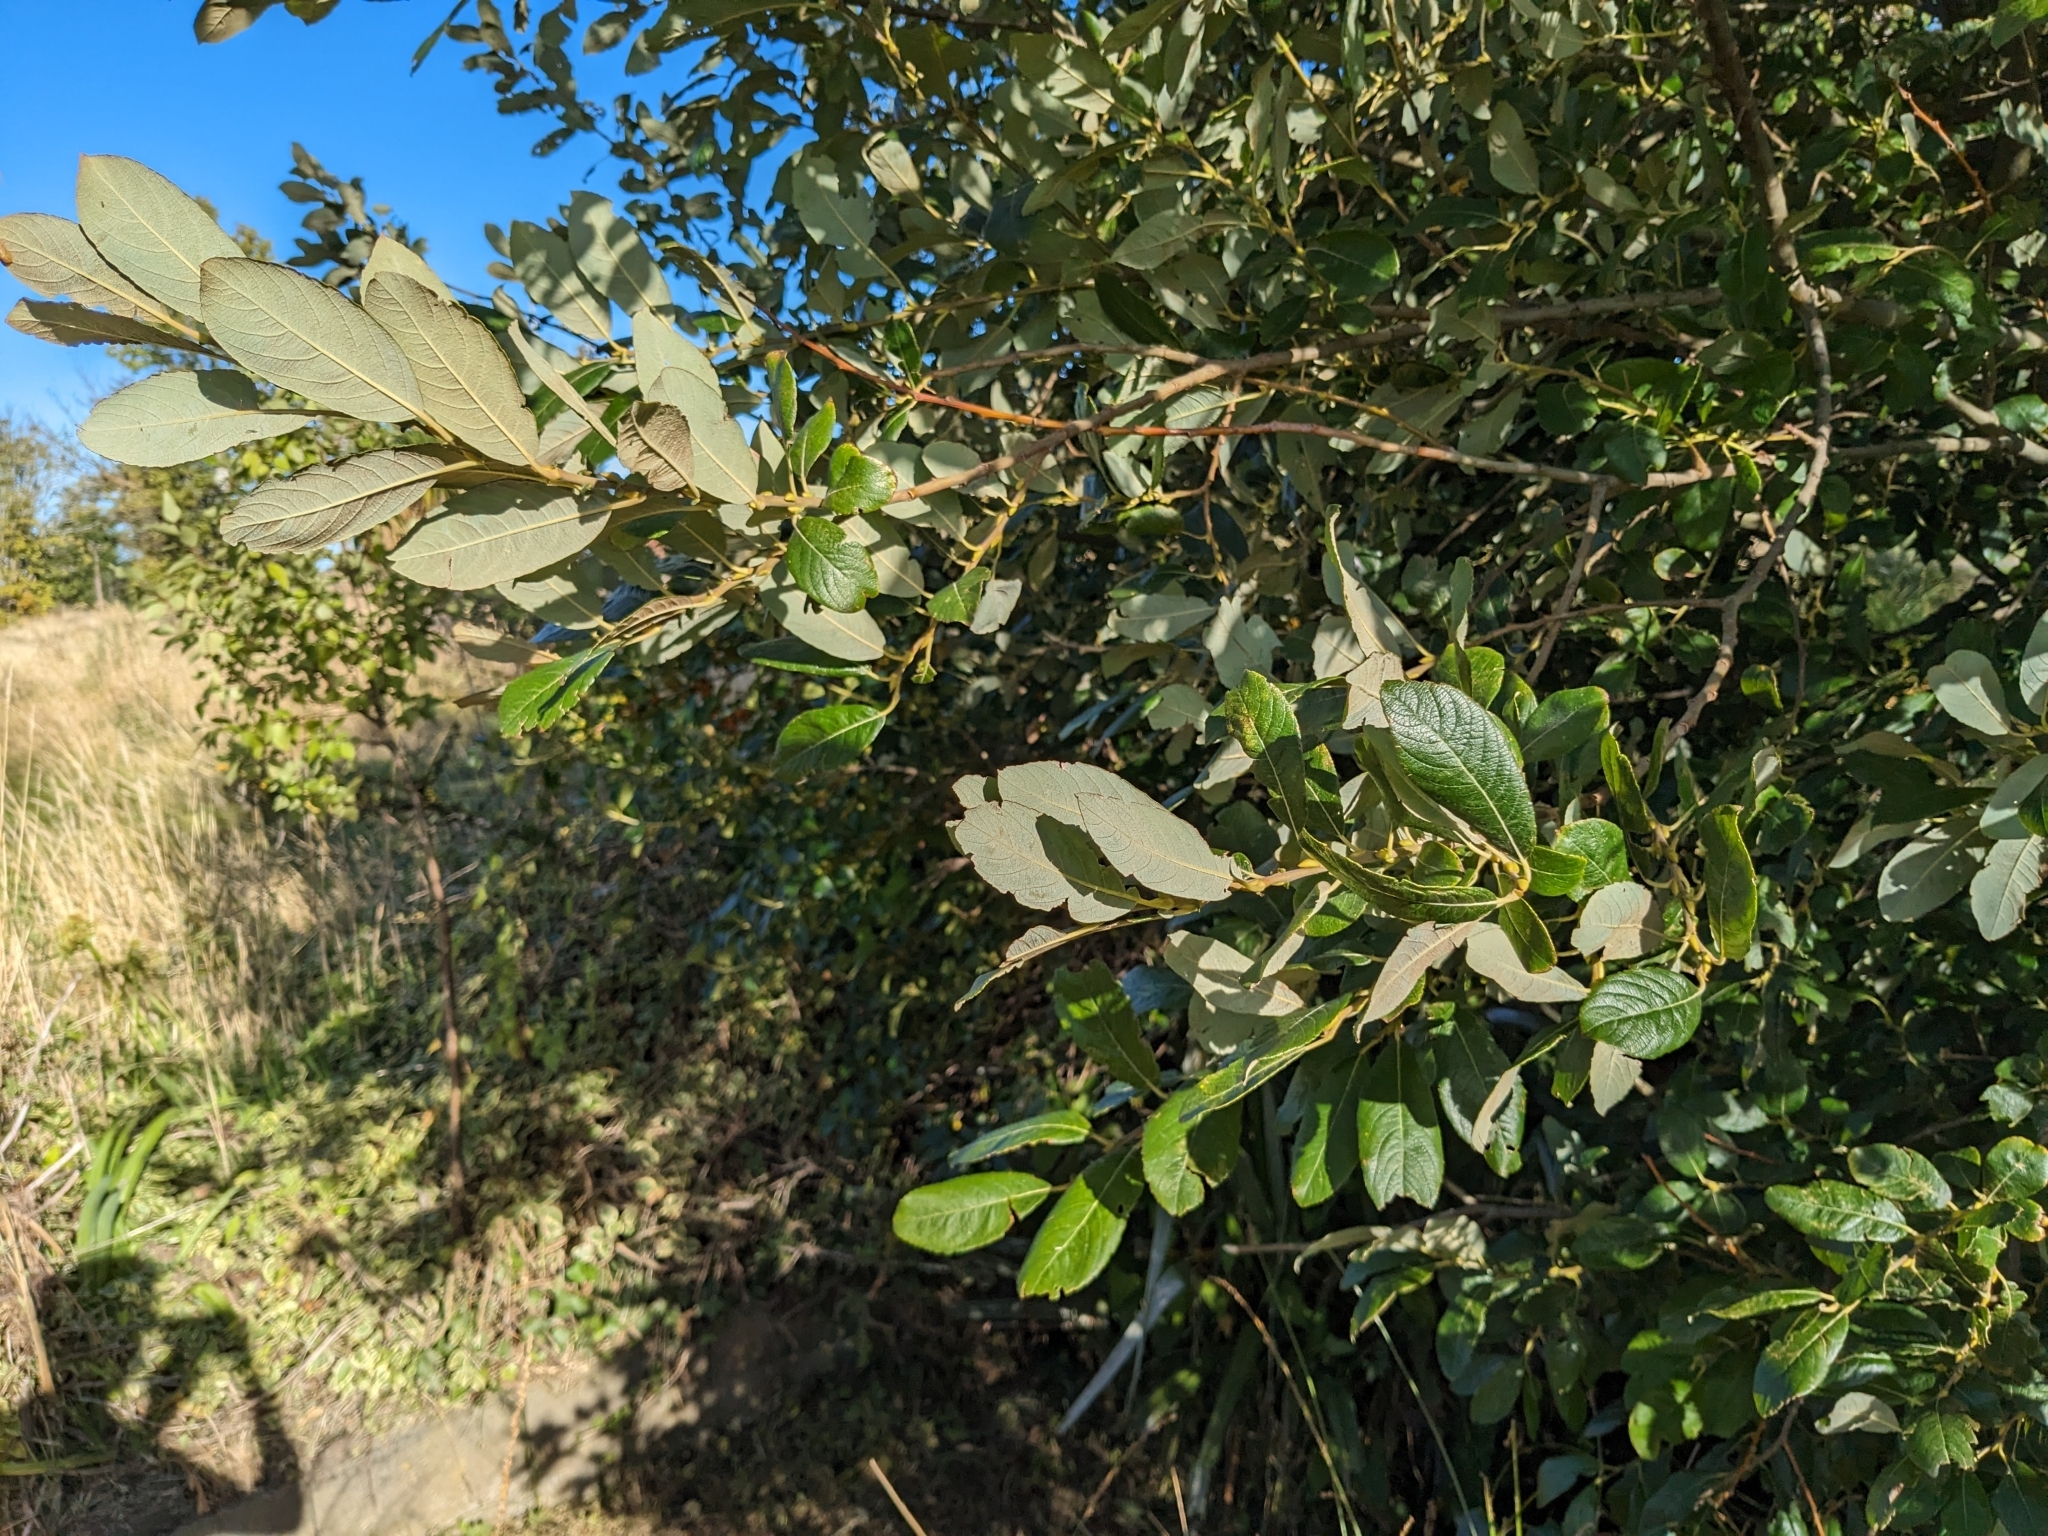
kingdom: Plantae
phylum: Tracheophyta
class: Magnoliopsida
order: Malpighiales
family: Salicaceae
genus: Salix
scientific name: Salix cinerea
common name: Common sallow
